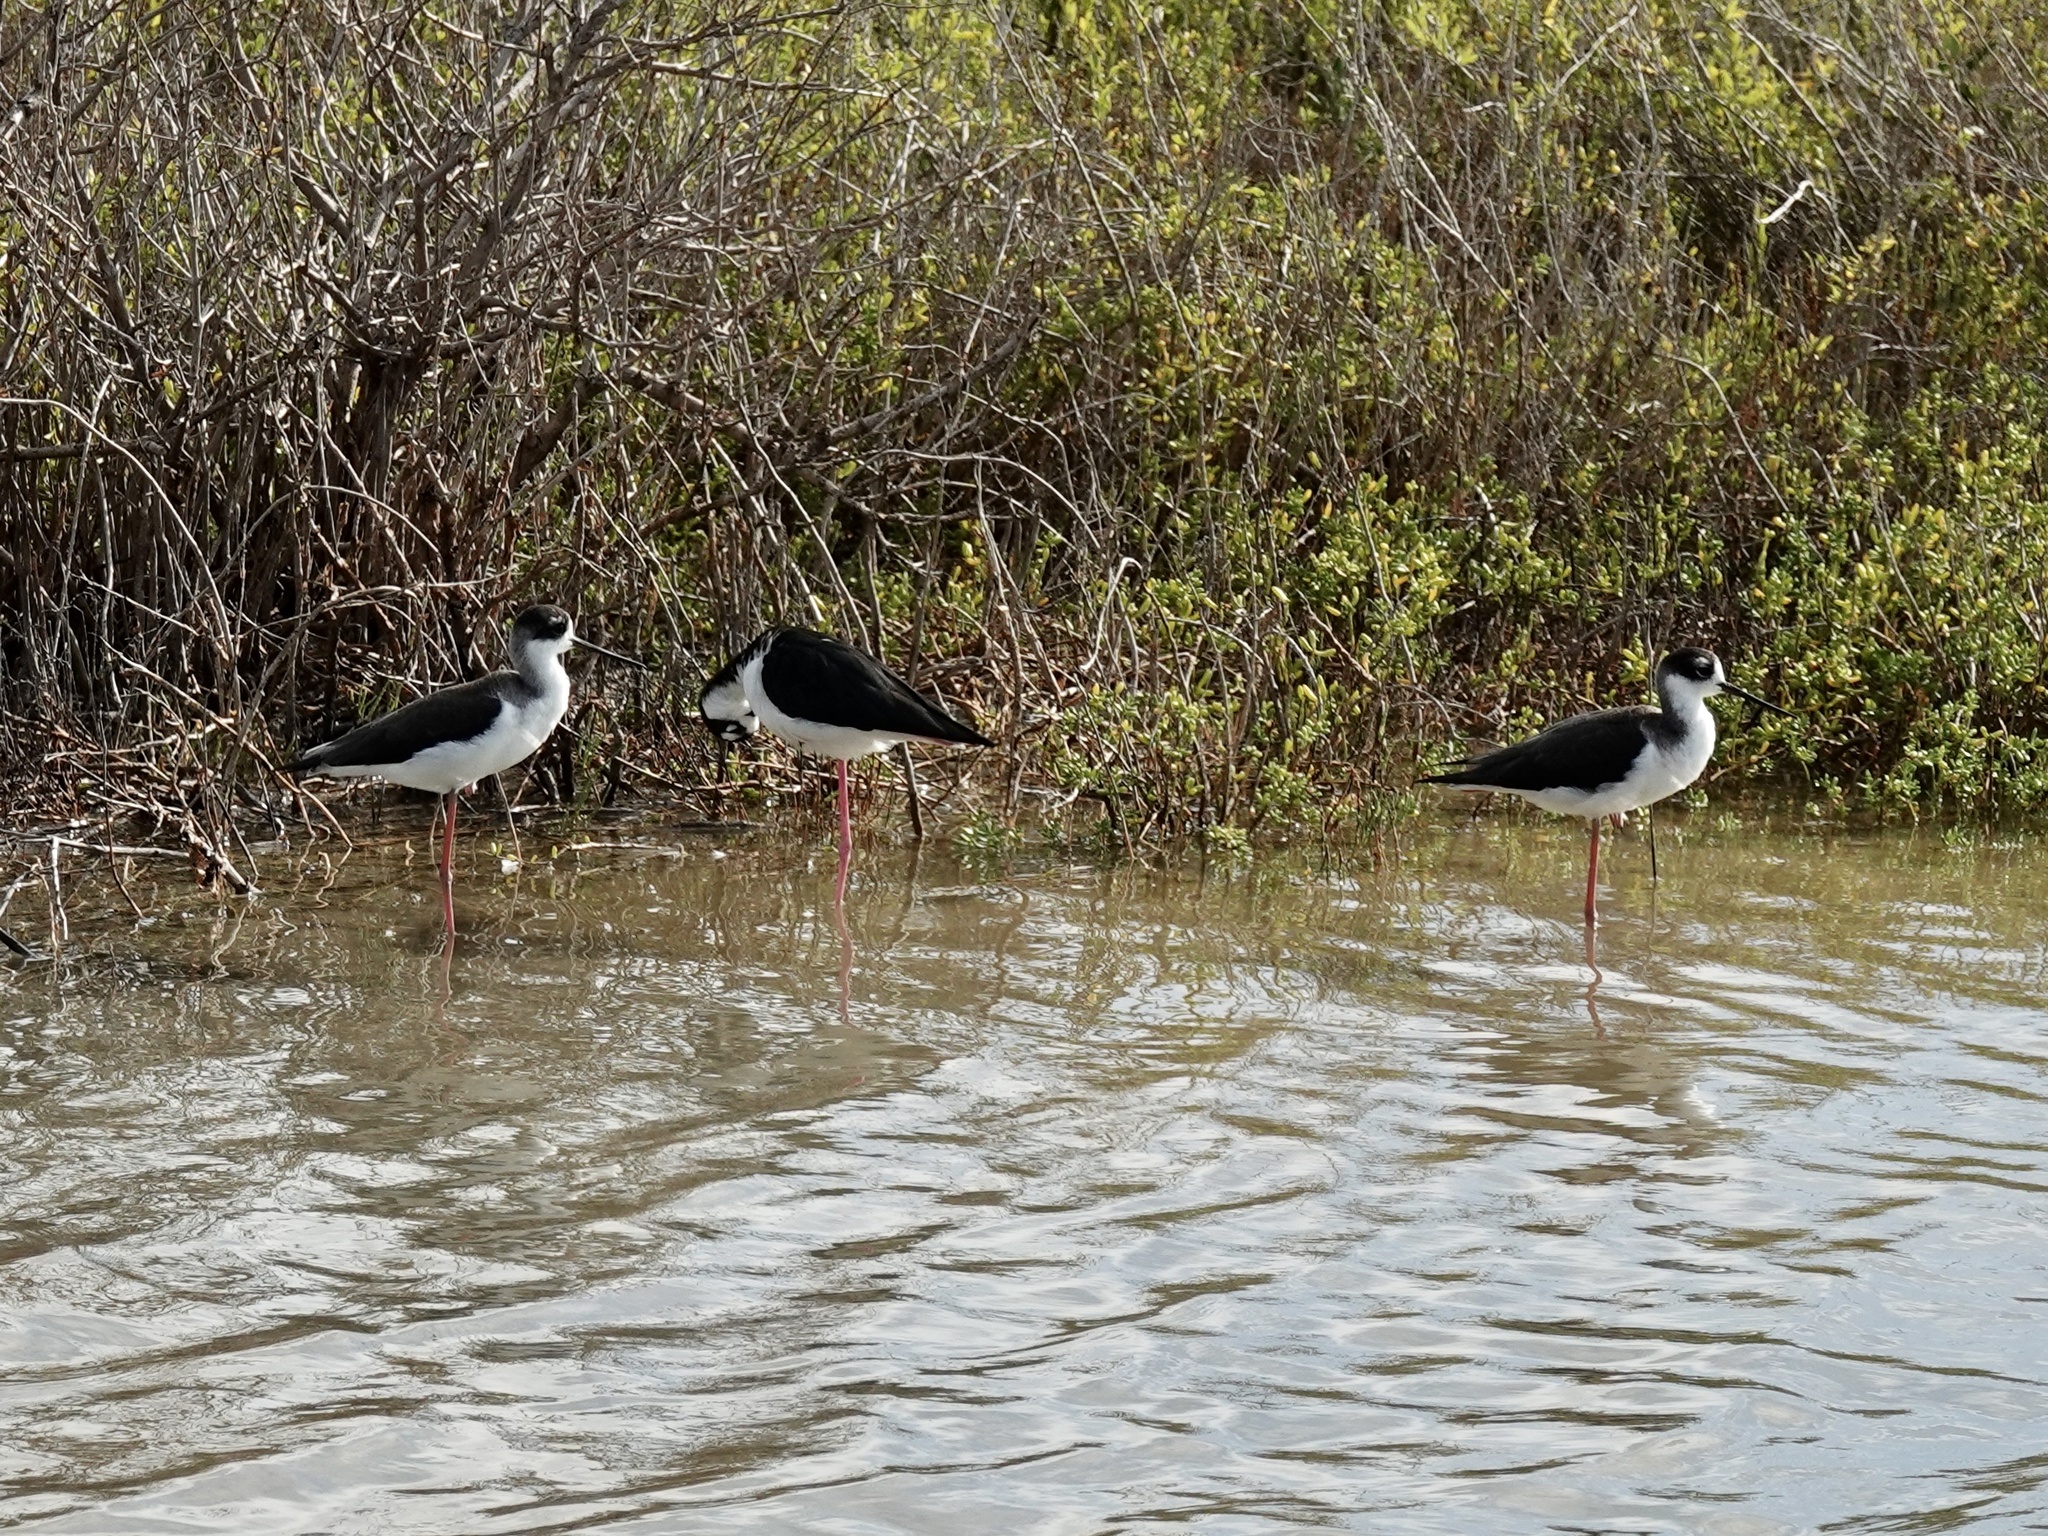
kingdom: Animalia
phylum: Chordata
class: Aves
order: Charadriiformes
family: Recurvirostridae
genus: Himantopus
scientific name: Himantopus mexicanus
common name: Black-necked stilt
